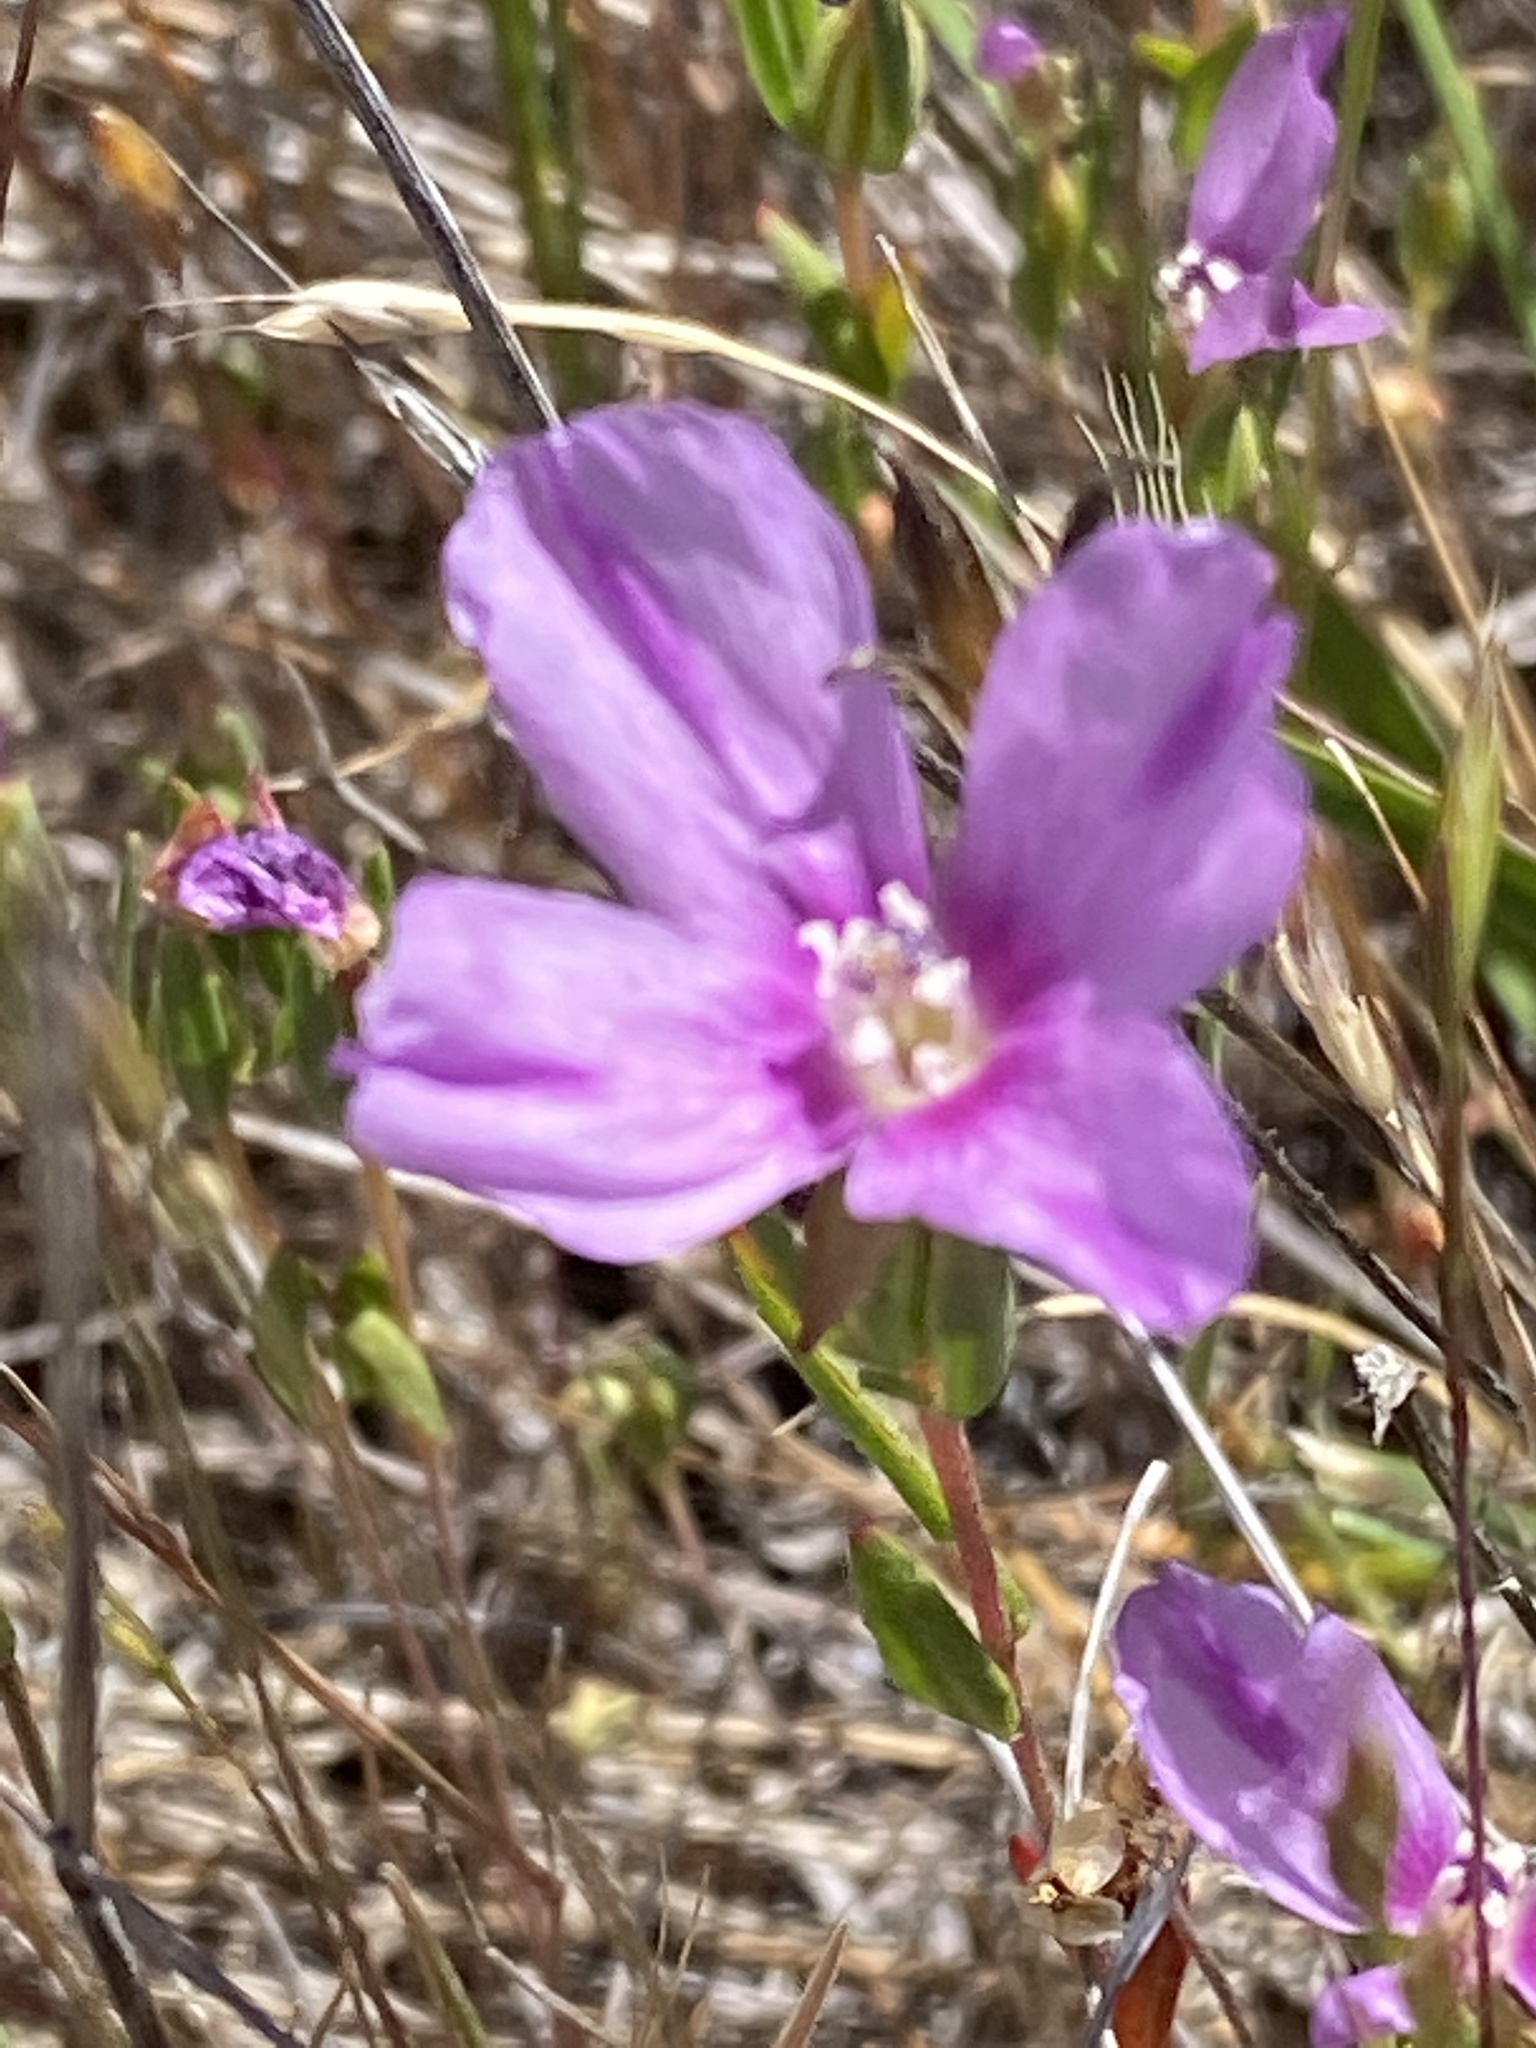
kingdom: Plantae
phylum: Tracheophyta
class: Magnoliopsida
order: Myrtales
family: Onagraceae
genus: Clarkia
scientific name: Clarkia purpurea
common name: Purple clarkia
